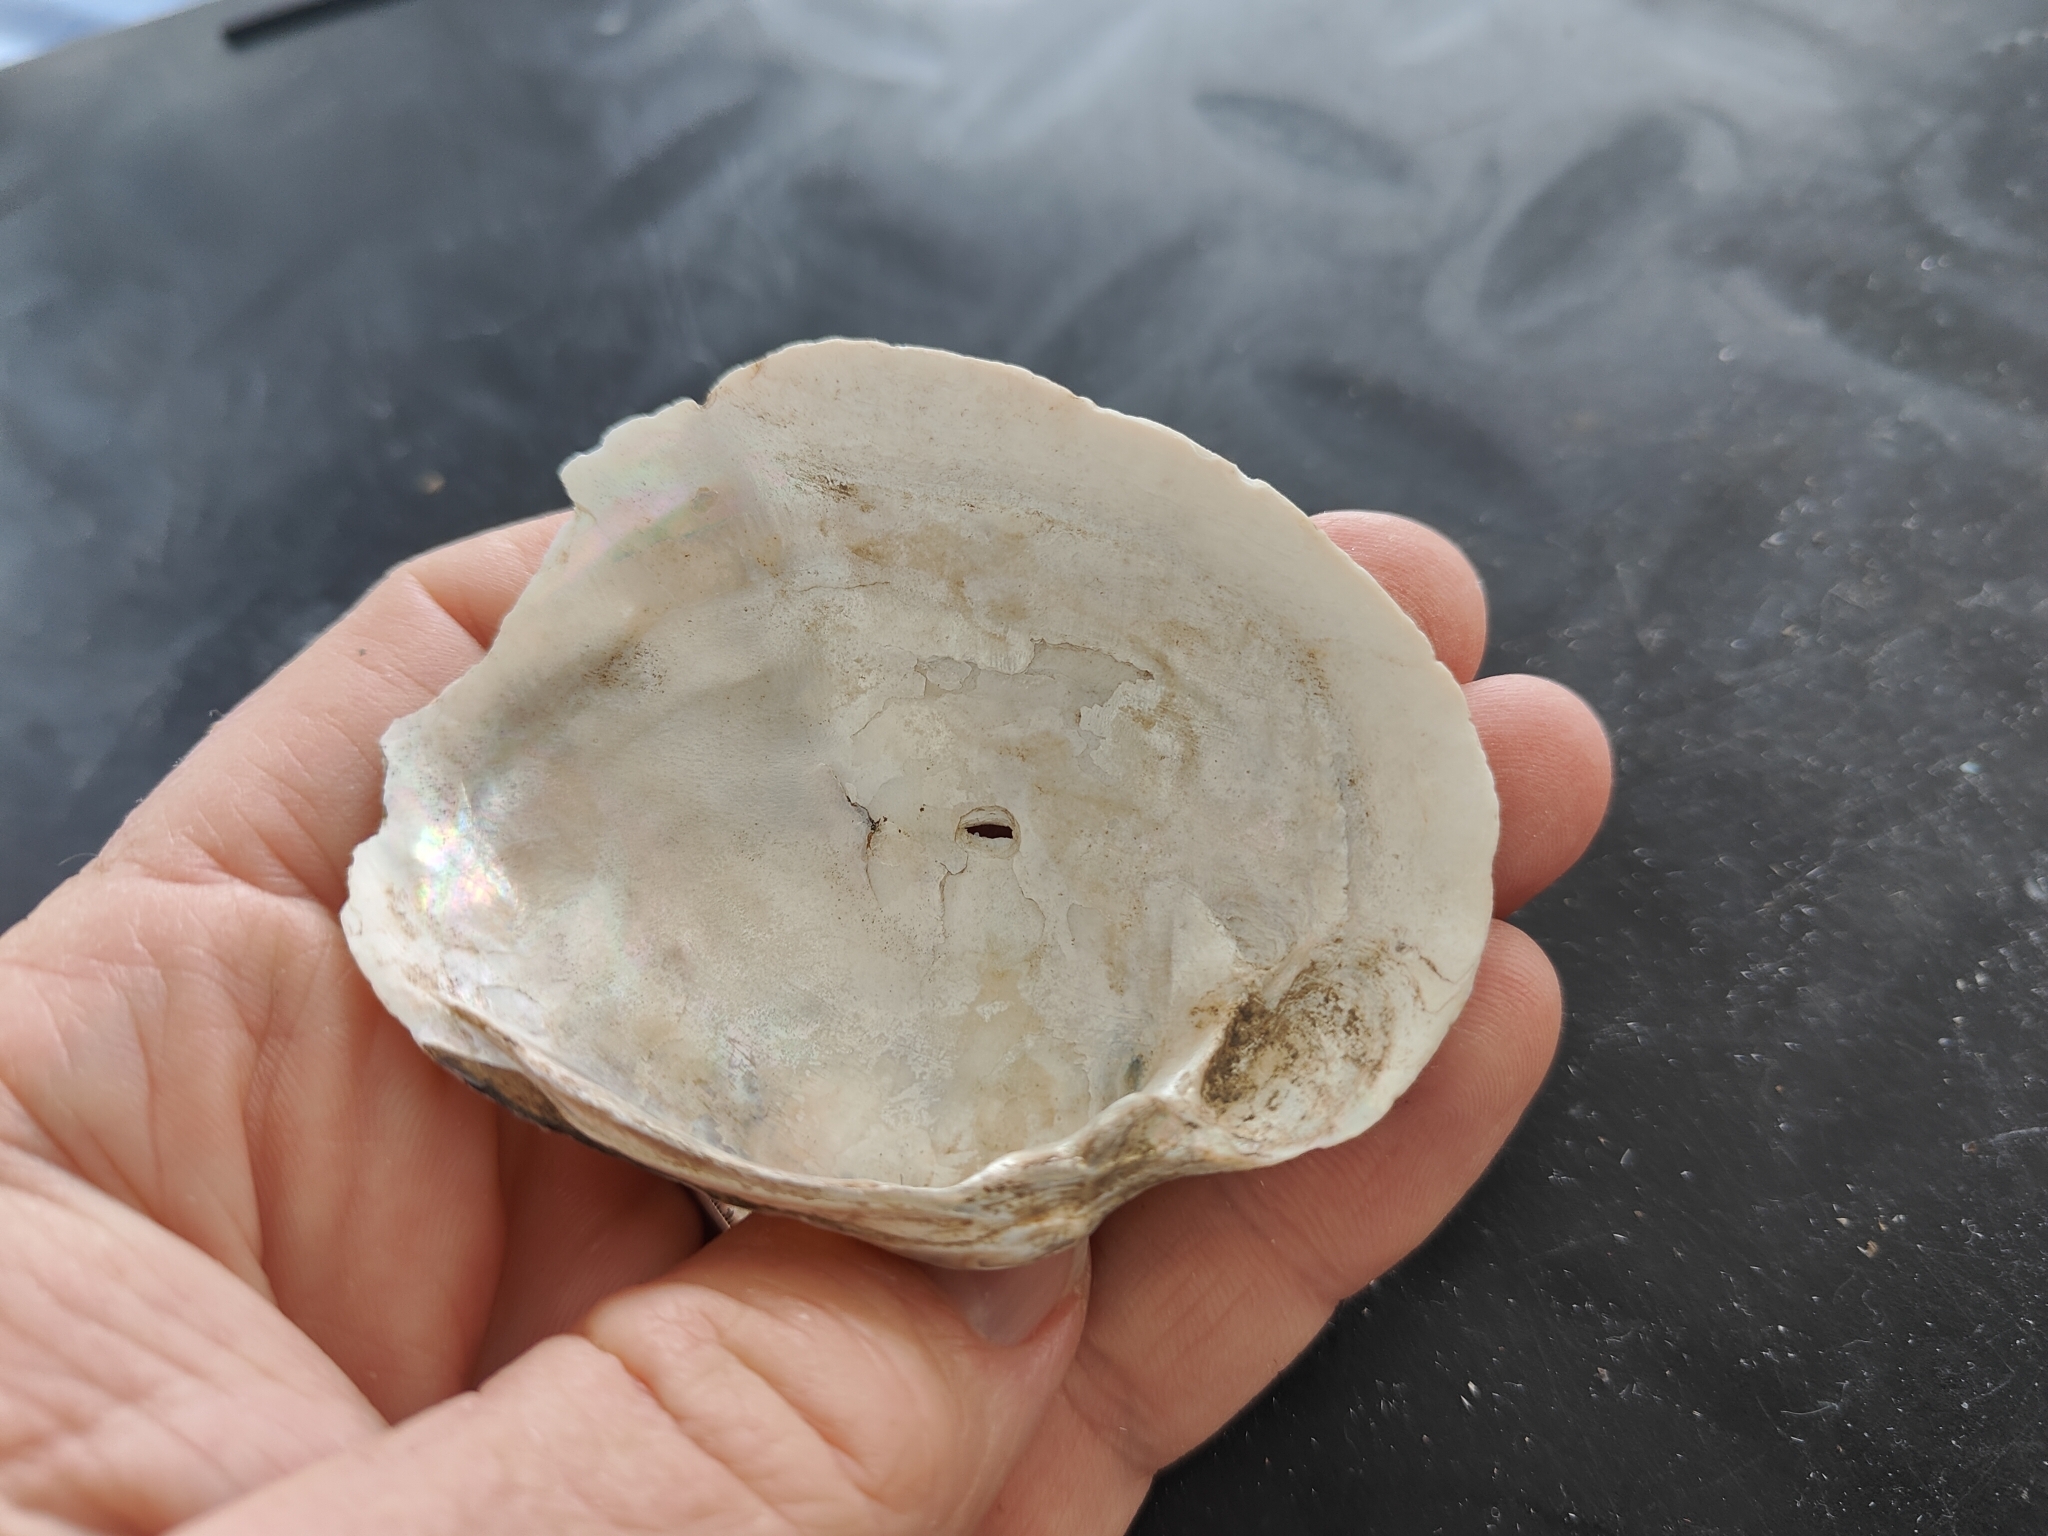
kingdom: Animalia
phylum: Mollusca
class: Bivalvia
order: Unionida
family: Unionidae
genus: Lampsilis
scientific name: Lampsilis cardium
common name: Plain pocketbook
